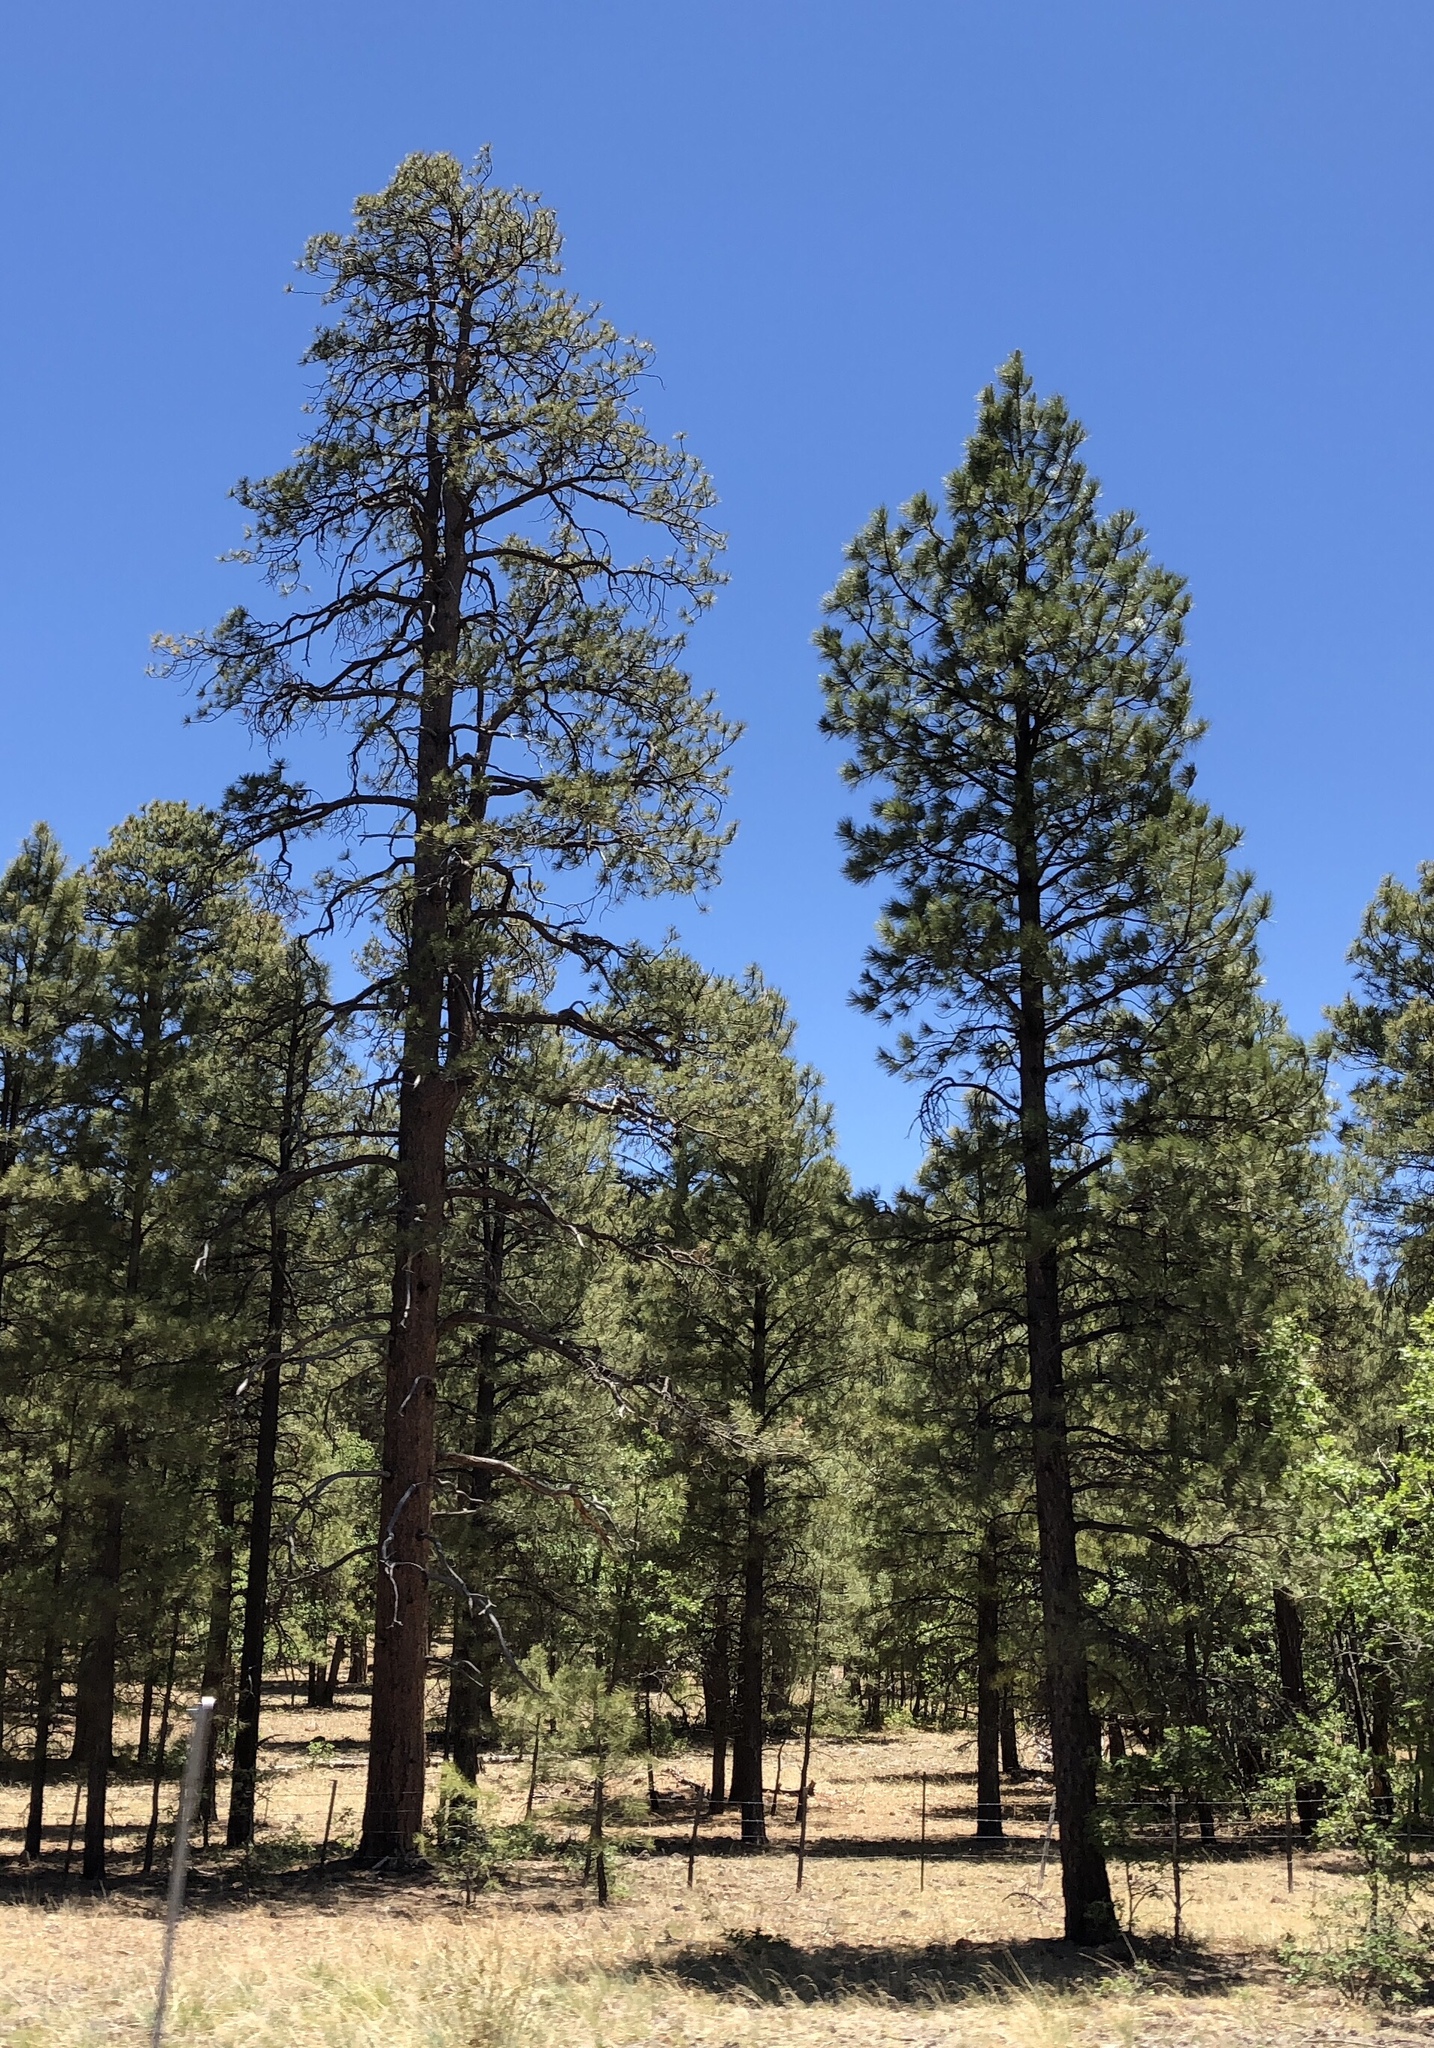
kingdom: Plantae
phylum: Tracheophyta
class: Pinopsida
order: Pinales
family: Pinaceae
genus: Pinus
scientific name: Pinus ponderosa
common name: Western yellow-pine
